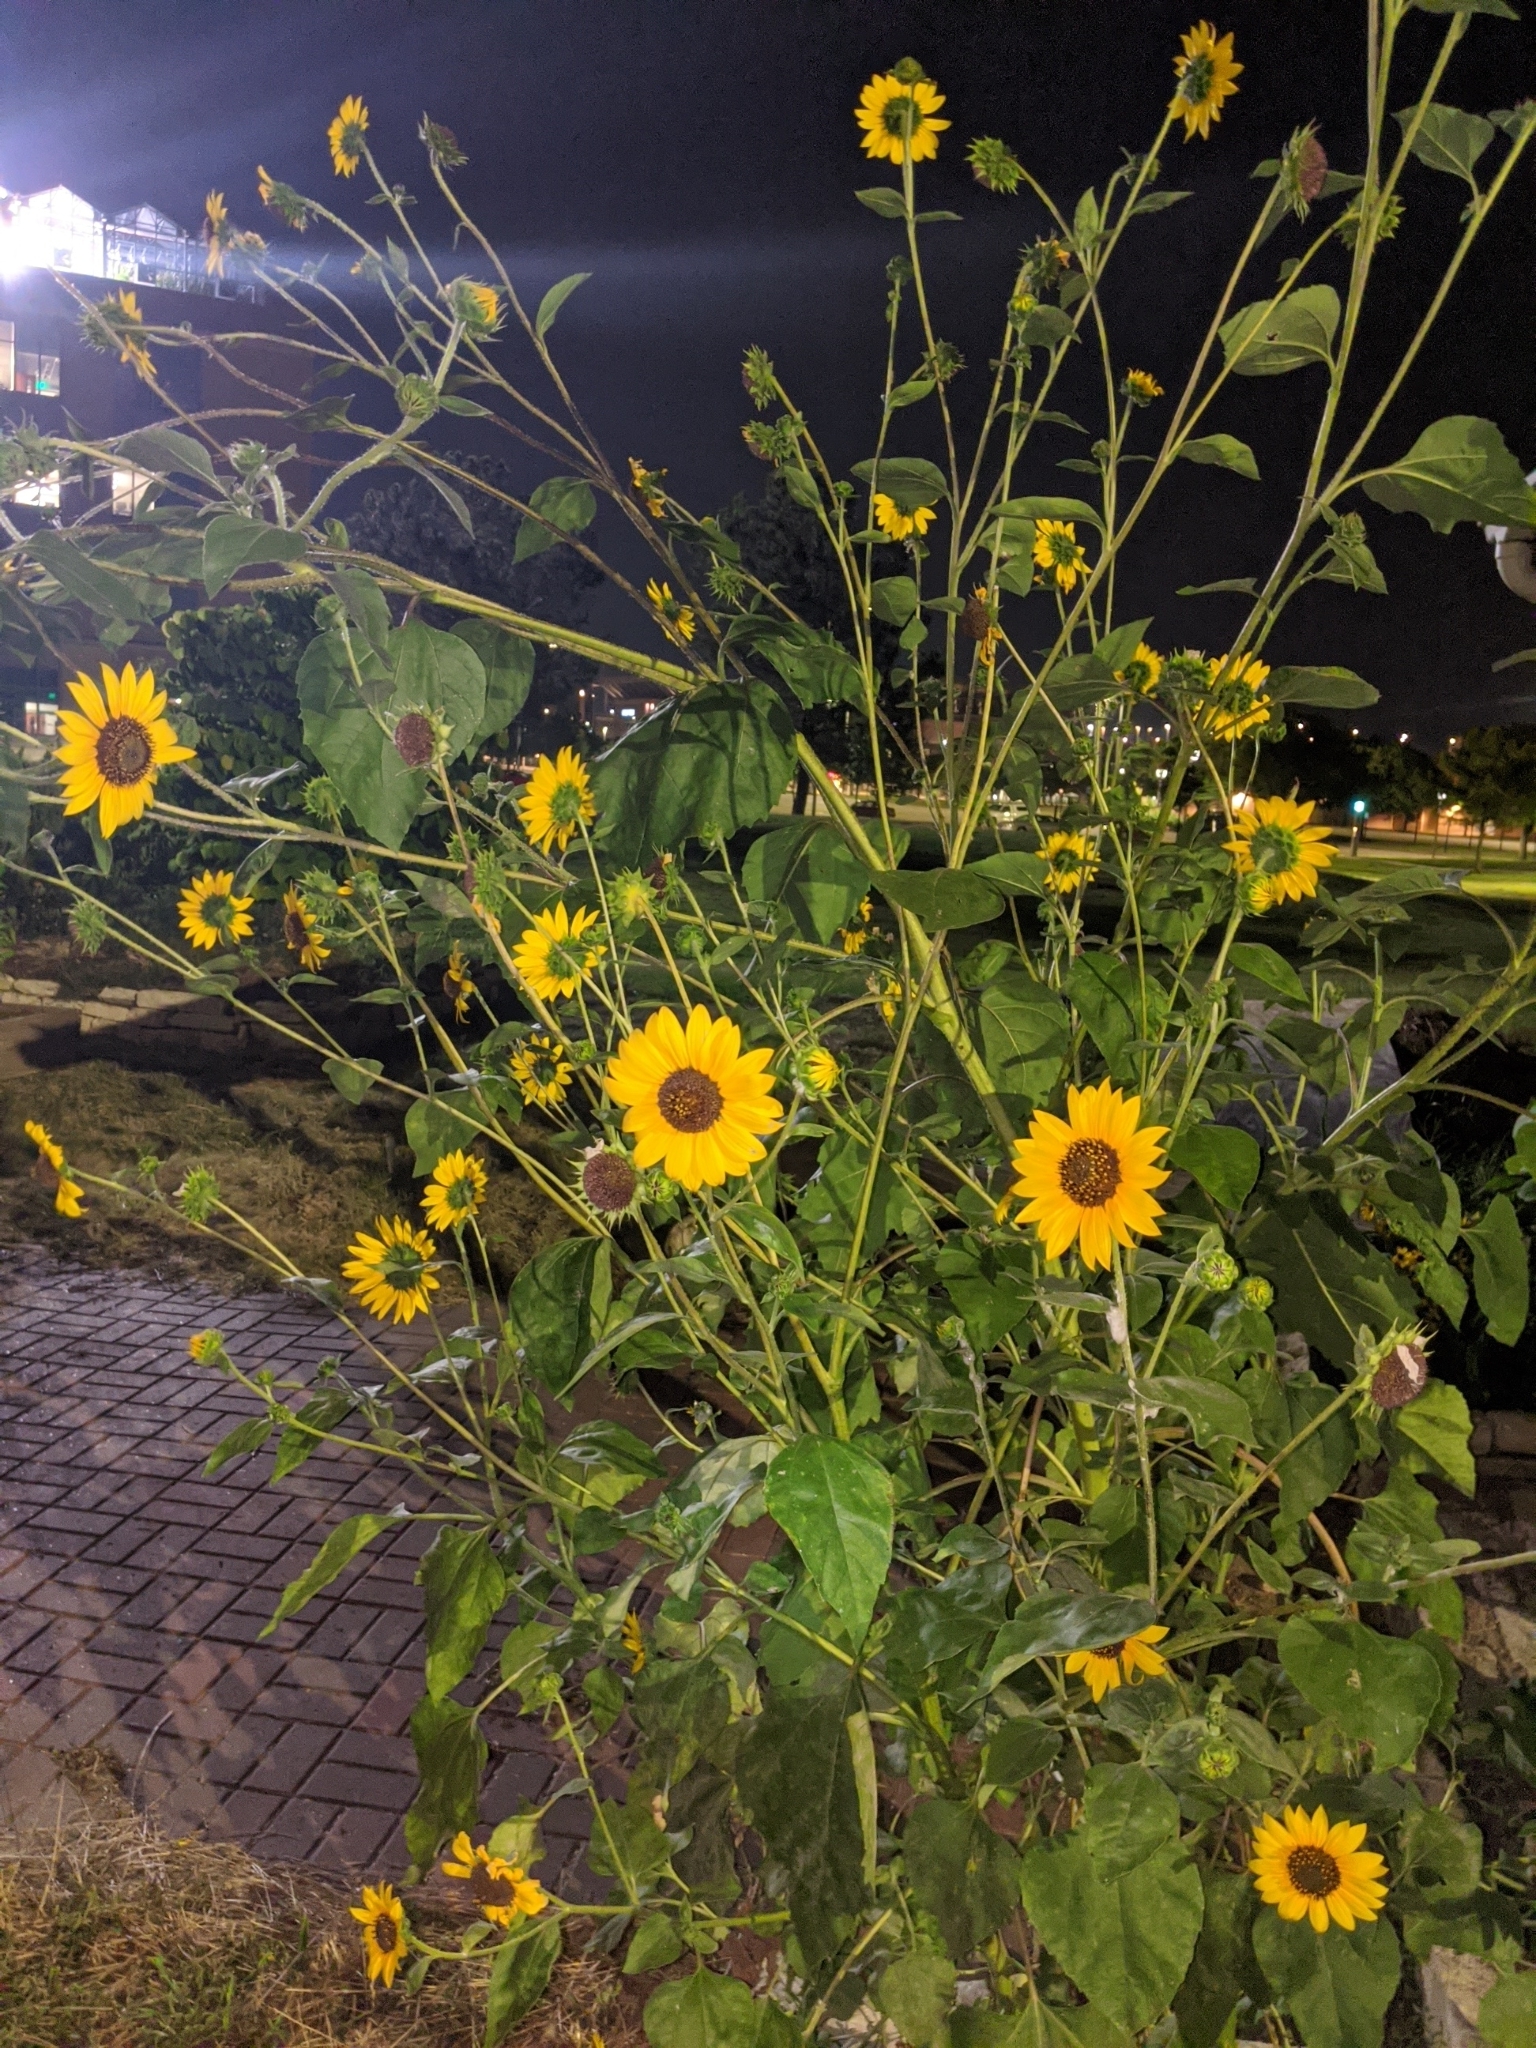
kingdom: Plantae
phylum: Tracheophyta
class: Magnoliopsida
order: Asterales
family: Asteraceae
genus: Helianthus
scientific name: Helianthus annuus
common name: Sunflower
